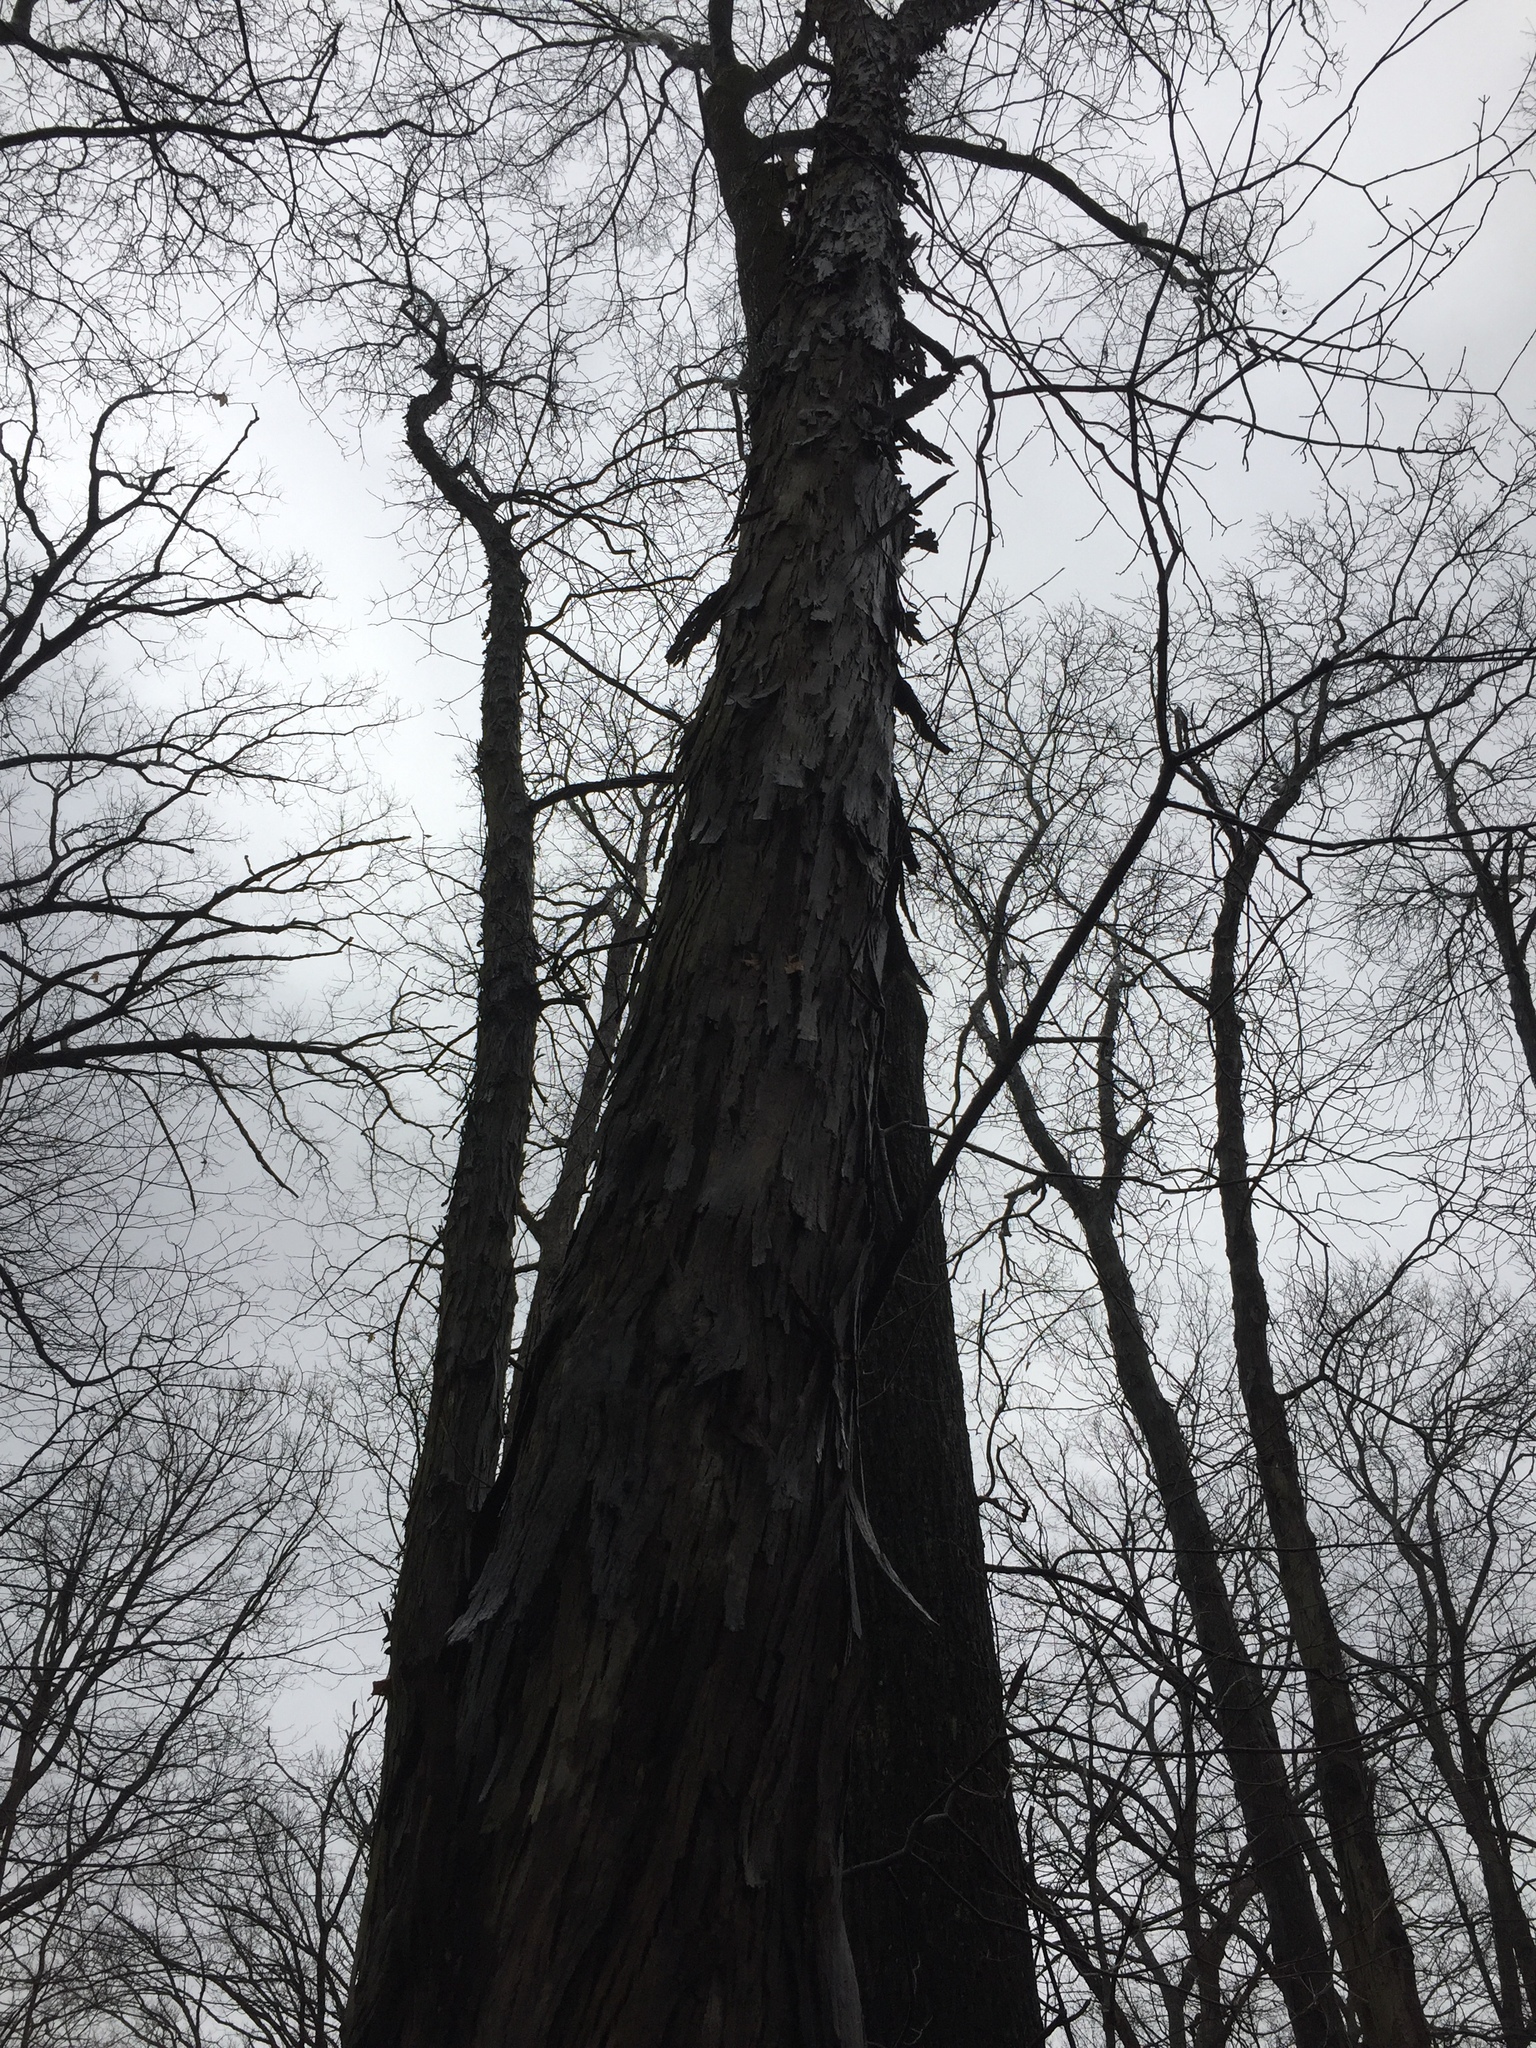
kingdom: Plantae
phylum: Tracheophyta
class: Magnoliopsida
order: Fagales
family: Juglandaceae
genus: Carya
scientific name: Carya ovata
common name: Shagbark hickory
